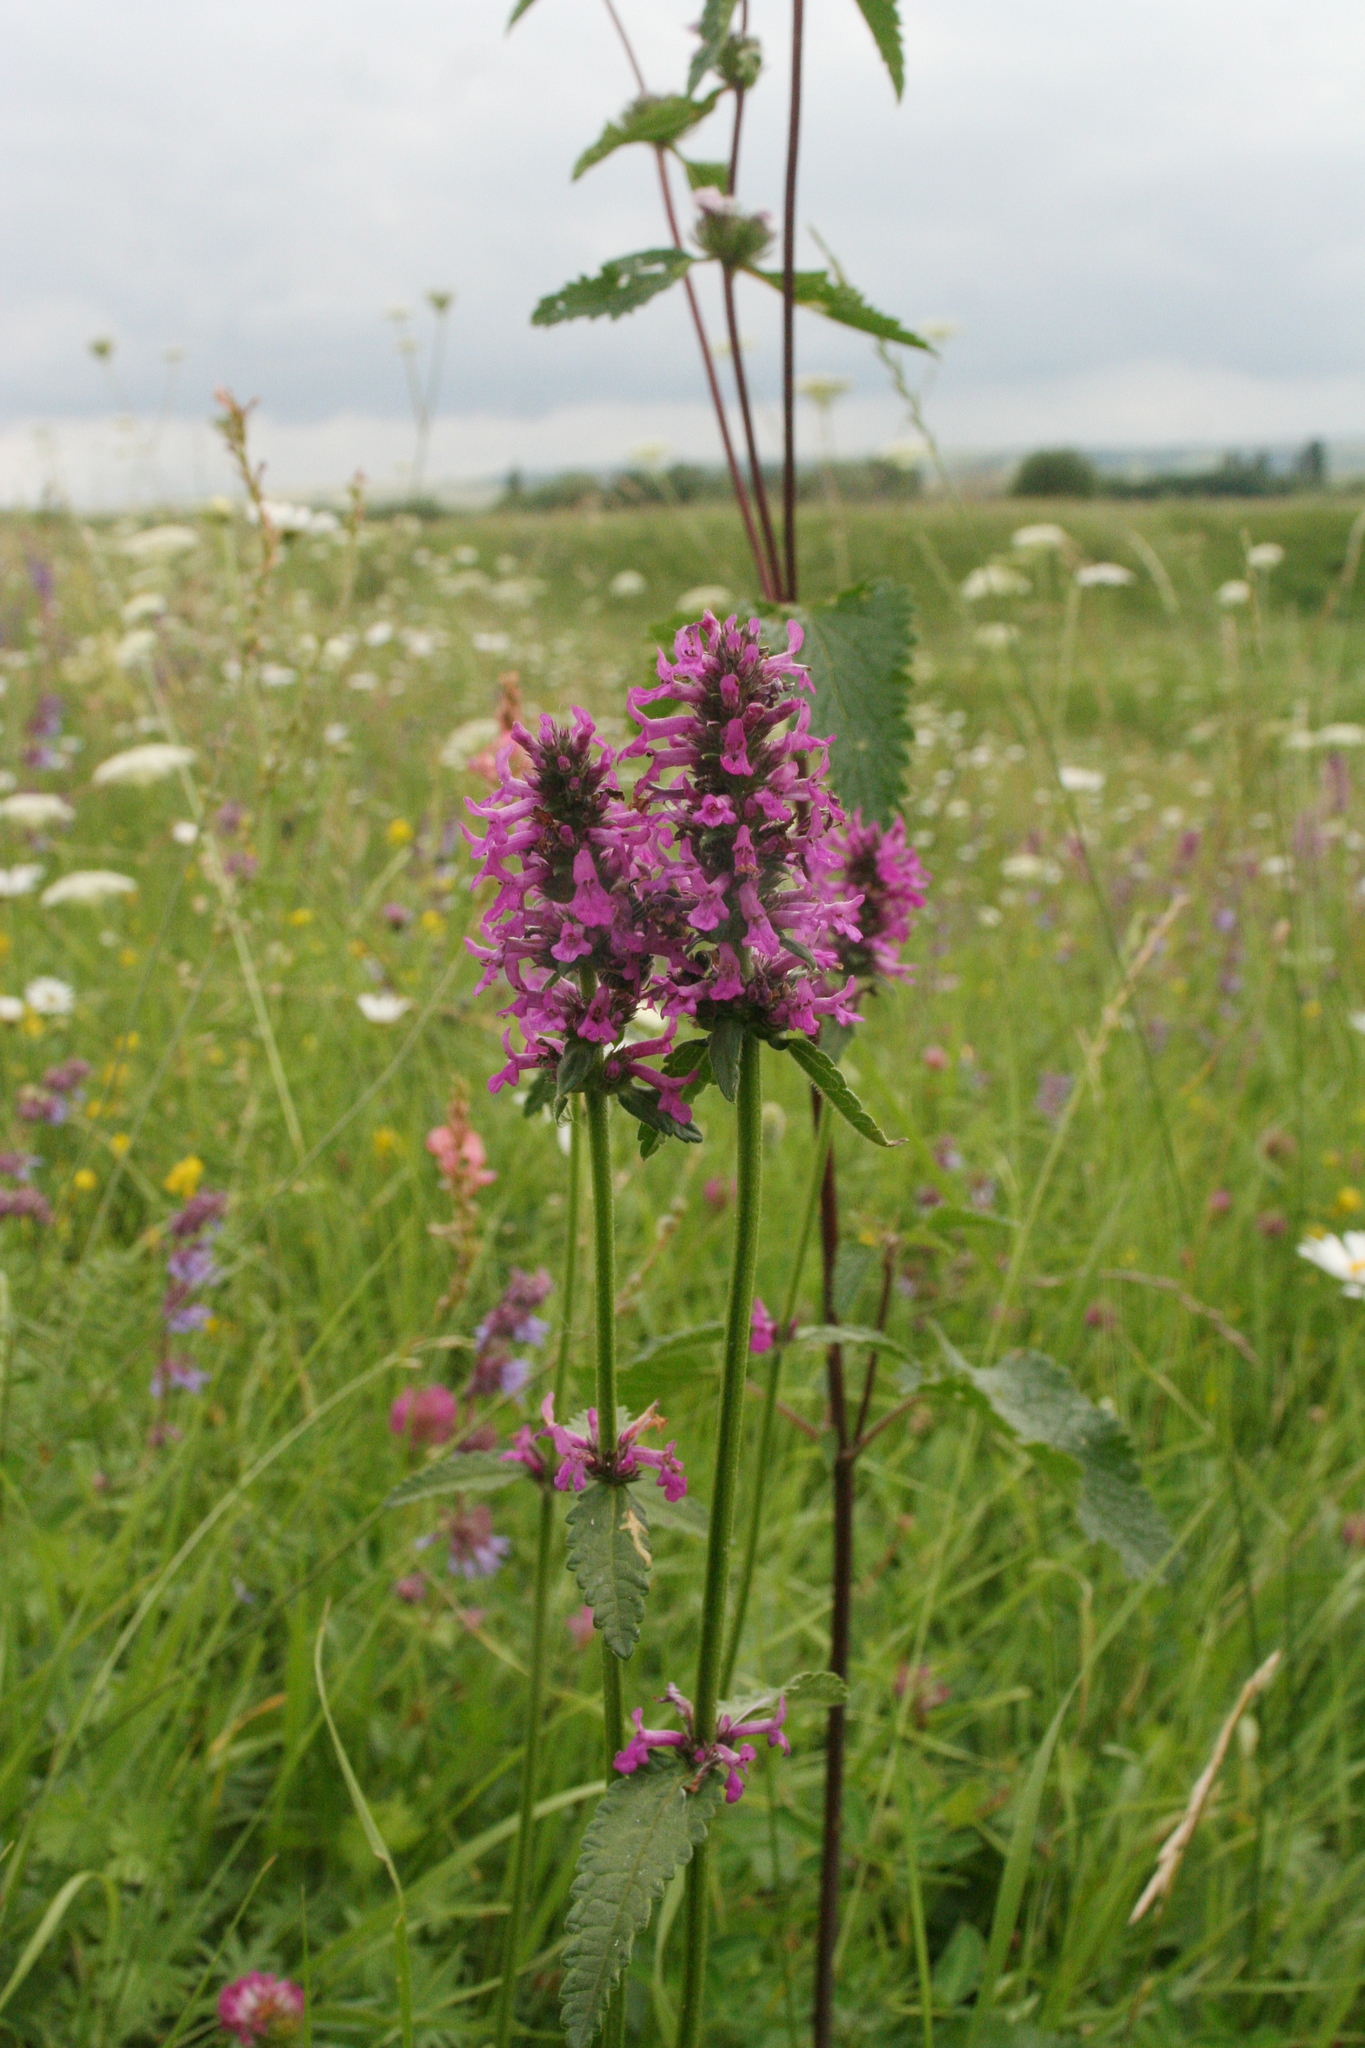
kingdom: Plantae
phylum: Tracheophyta
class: Magnoliopsida
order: Lamiales
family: Lamiaceae
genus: Betonica
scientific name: Betonica officinalis
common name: Bishop's-wort
